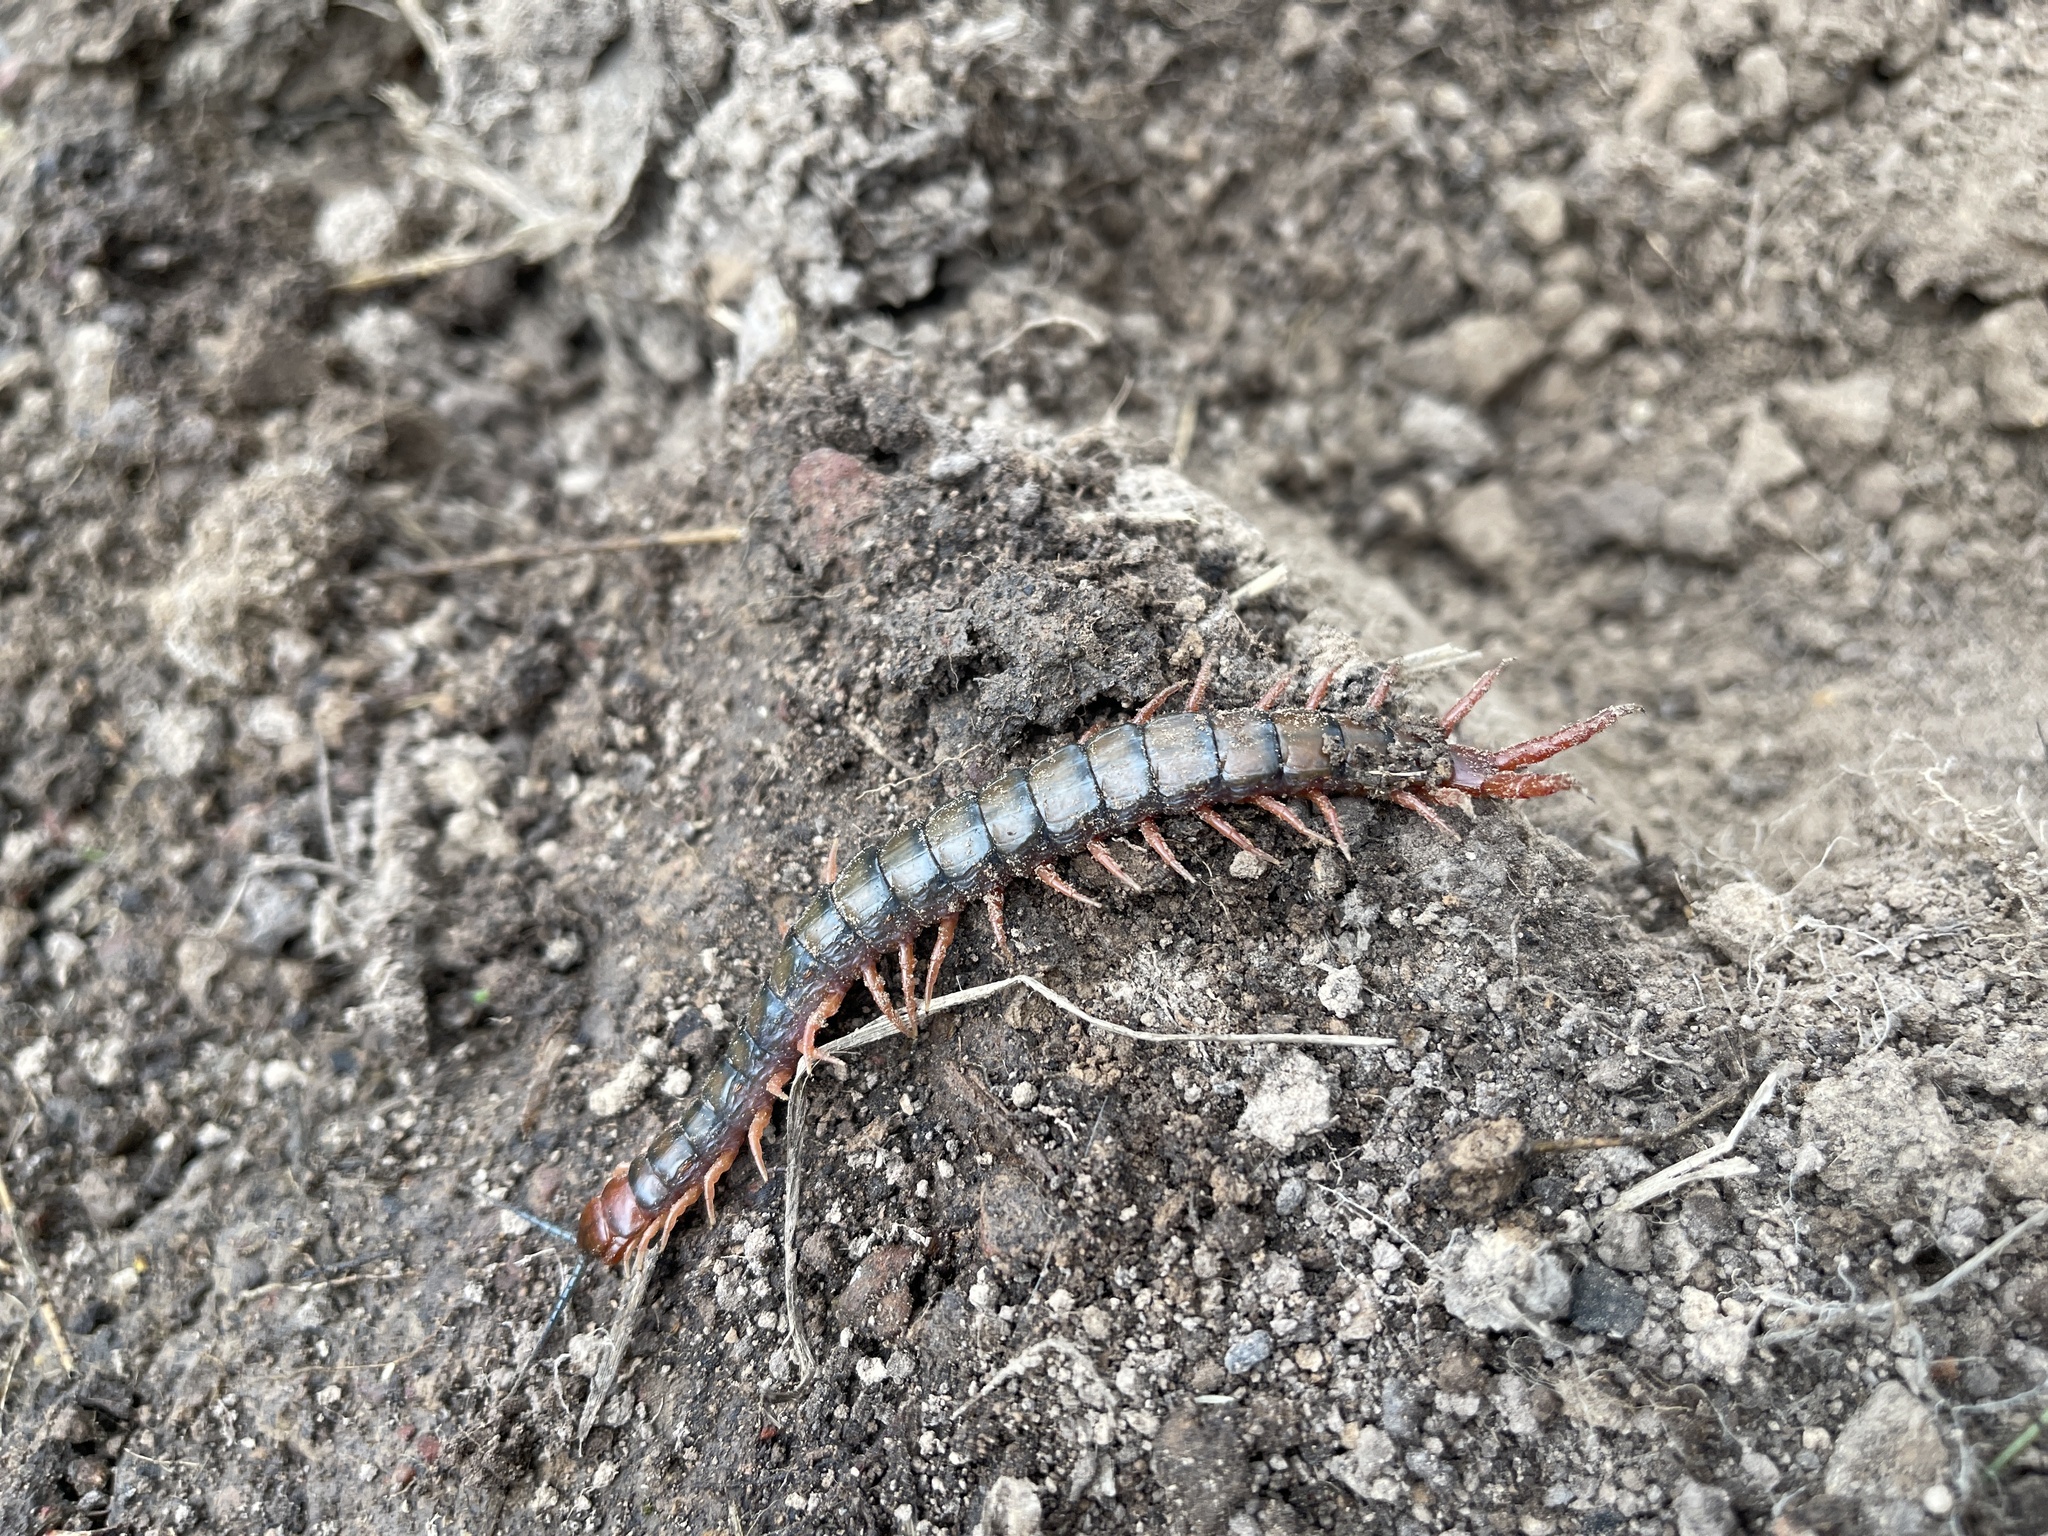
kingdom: Animalia
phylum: Arthropoda
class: Chilopoda
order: Scolopendromorpha
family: Scolopendridae
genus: Cormocephalus
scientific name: Cormocephalus aurantiipes
